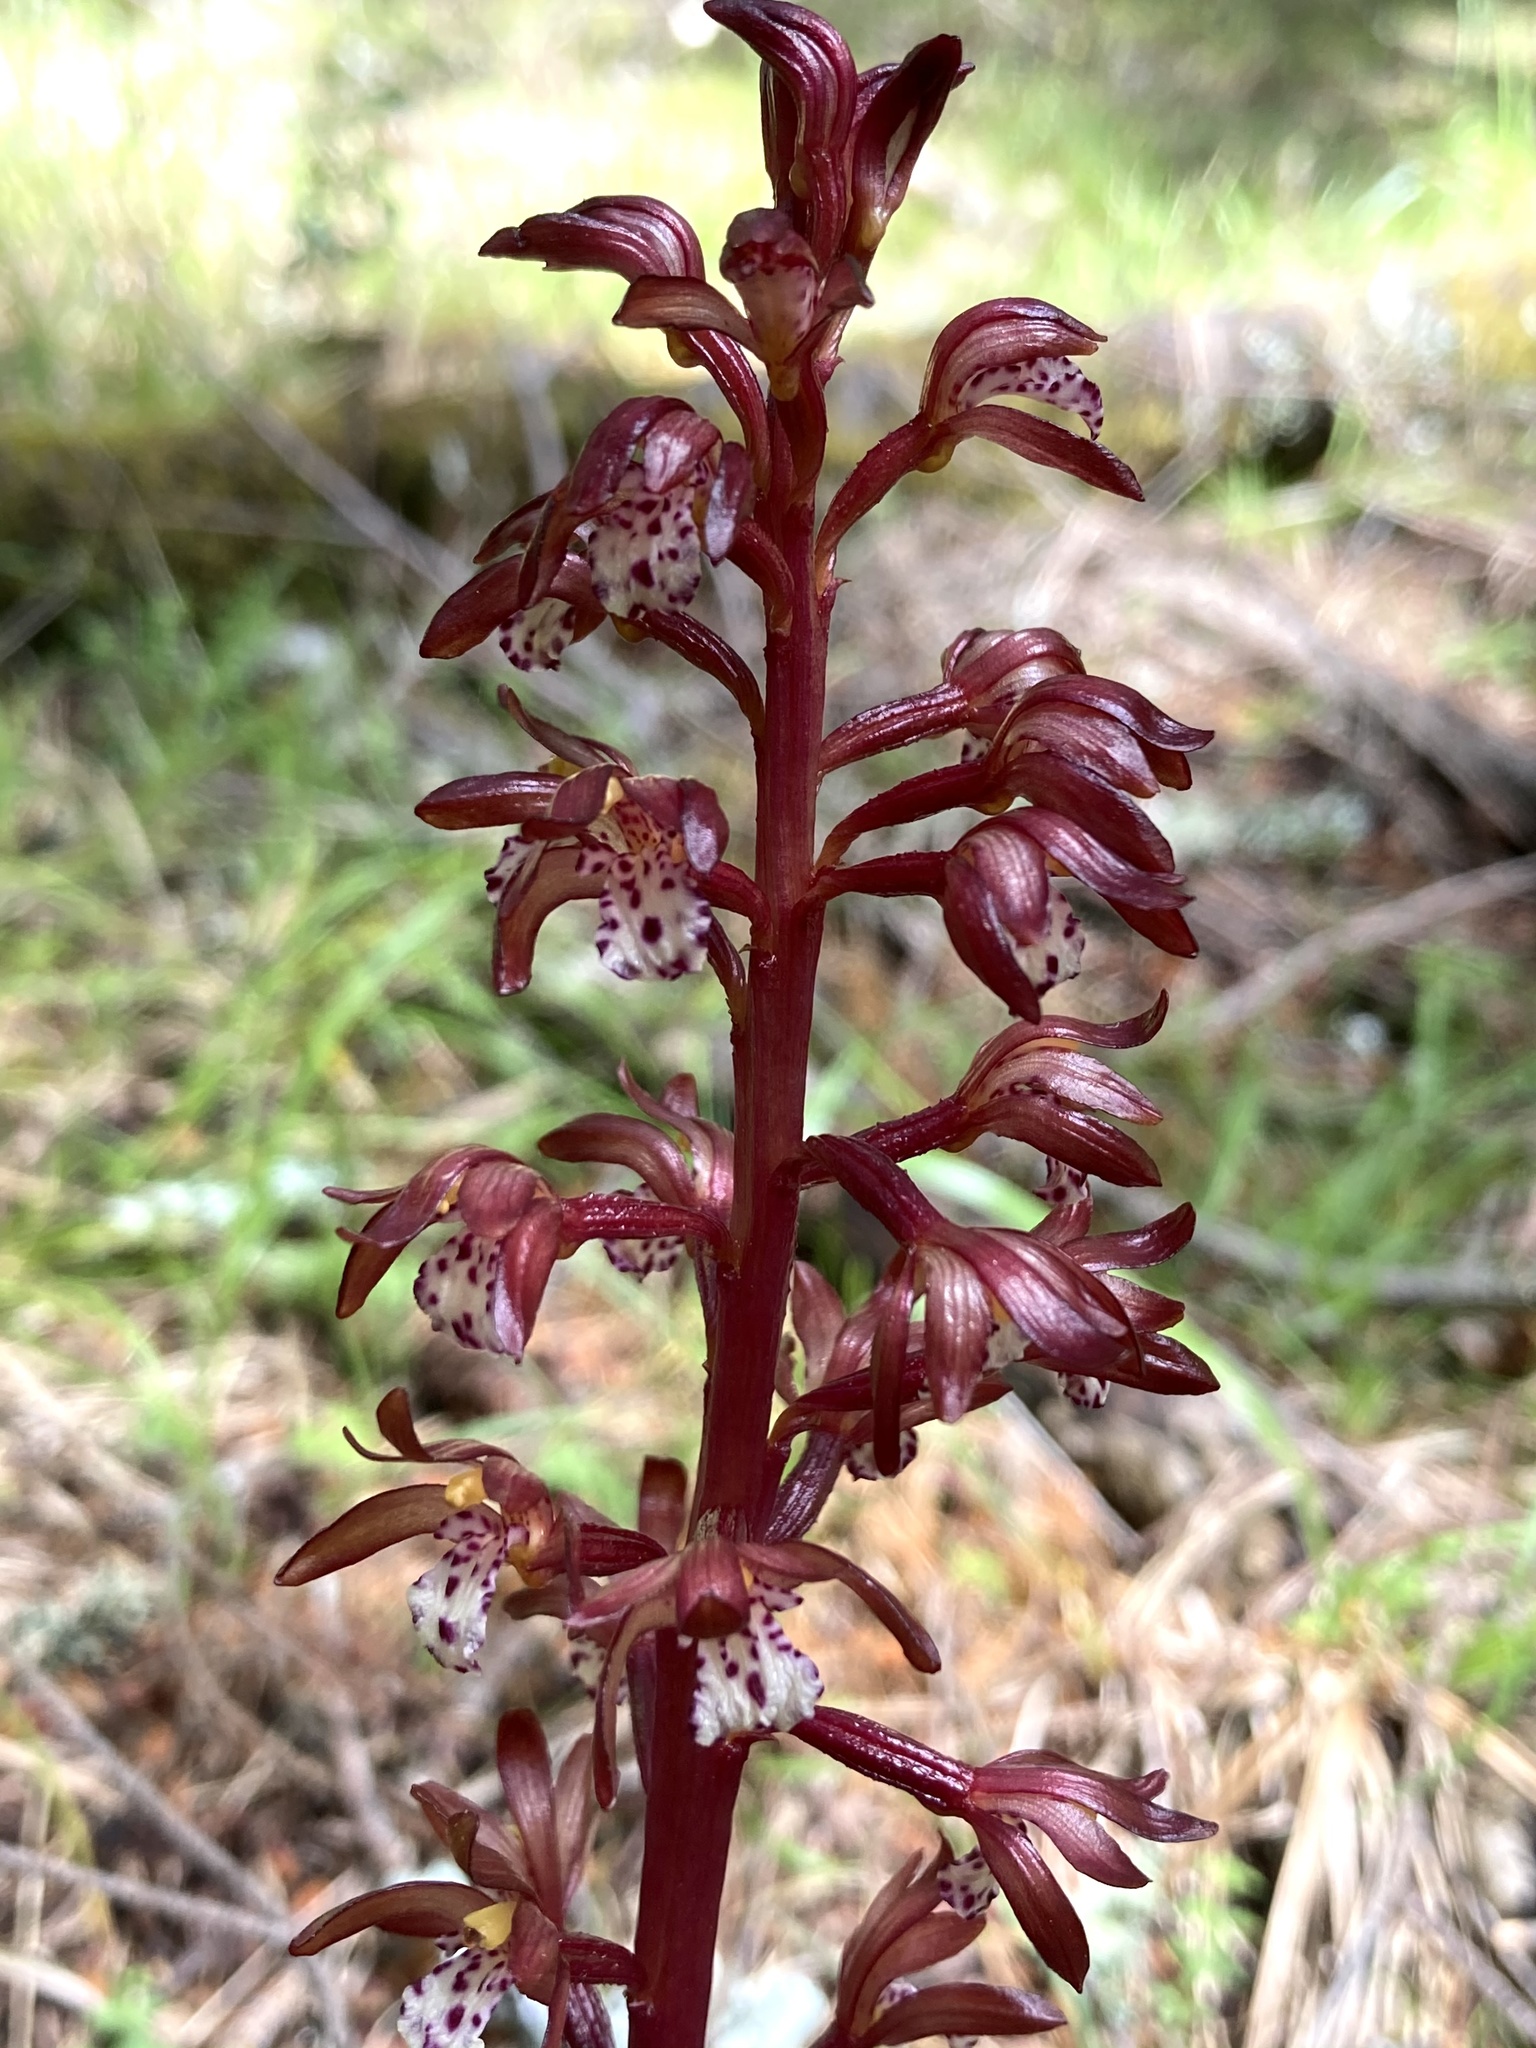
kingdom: Plantae
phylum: Tracheophyta
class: Liliopsida
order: Asparagales
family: Orchidaceae
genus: Corallorhiza
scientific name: Corallorhiza maculata
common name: Spotted coralroot
